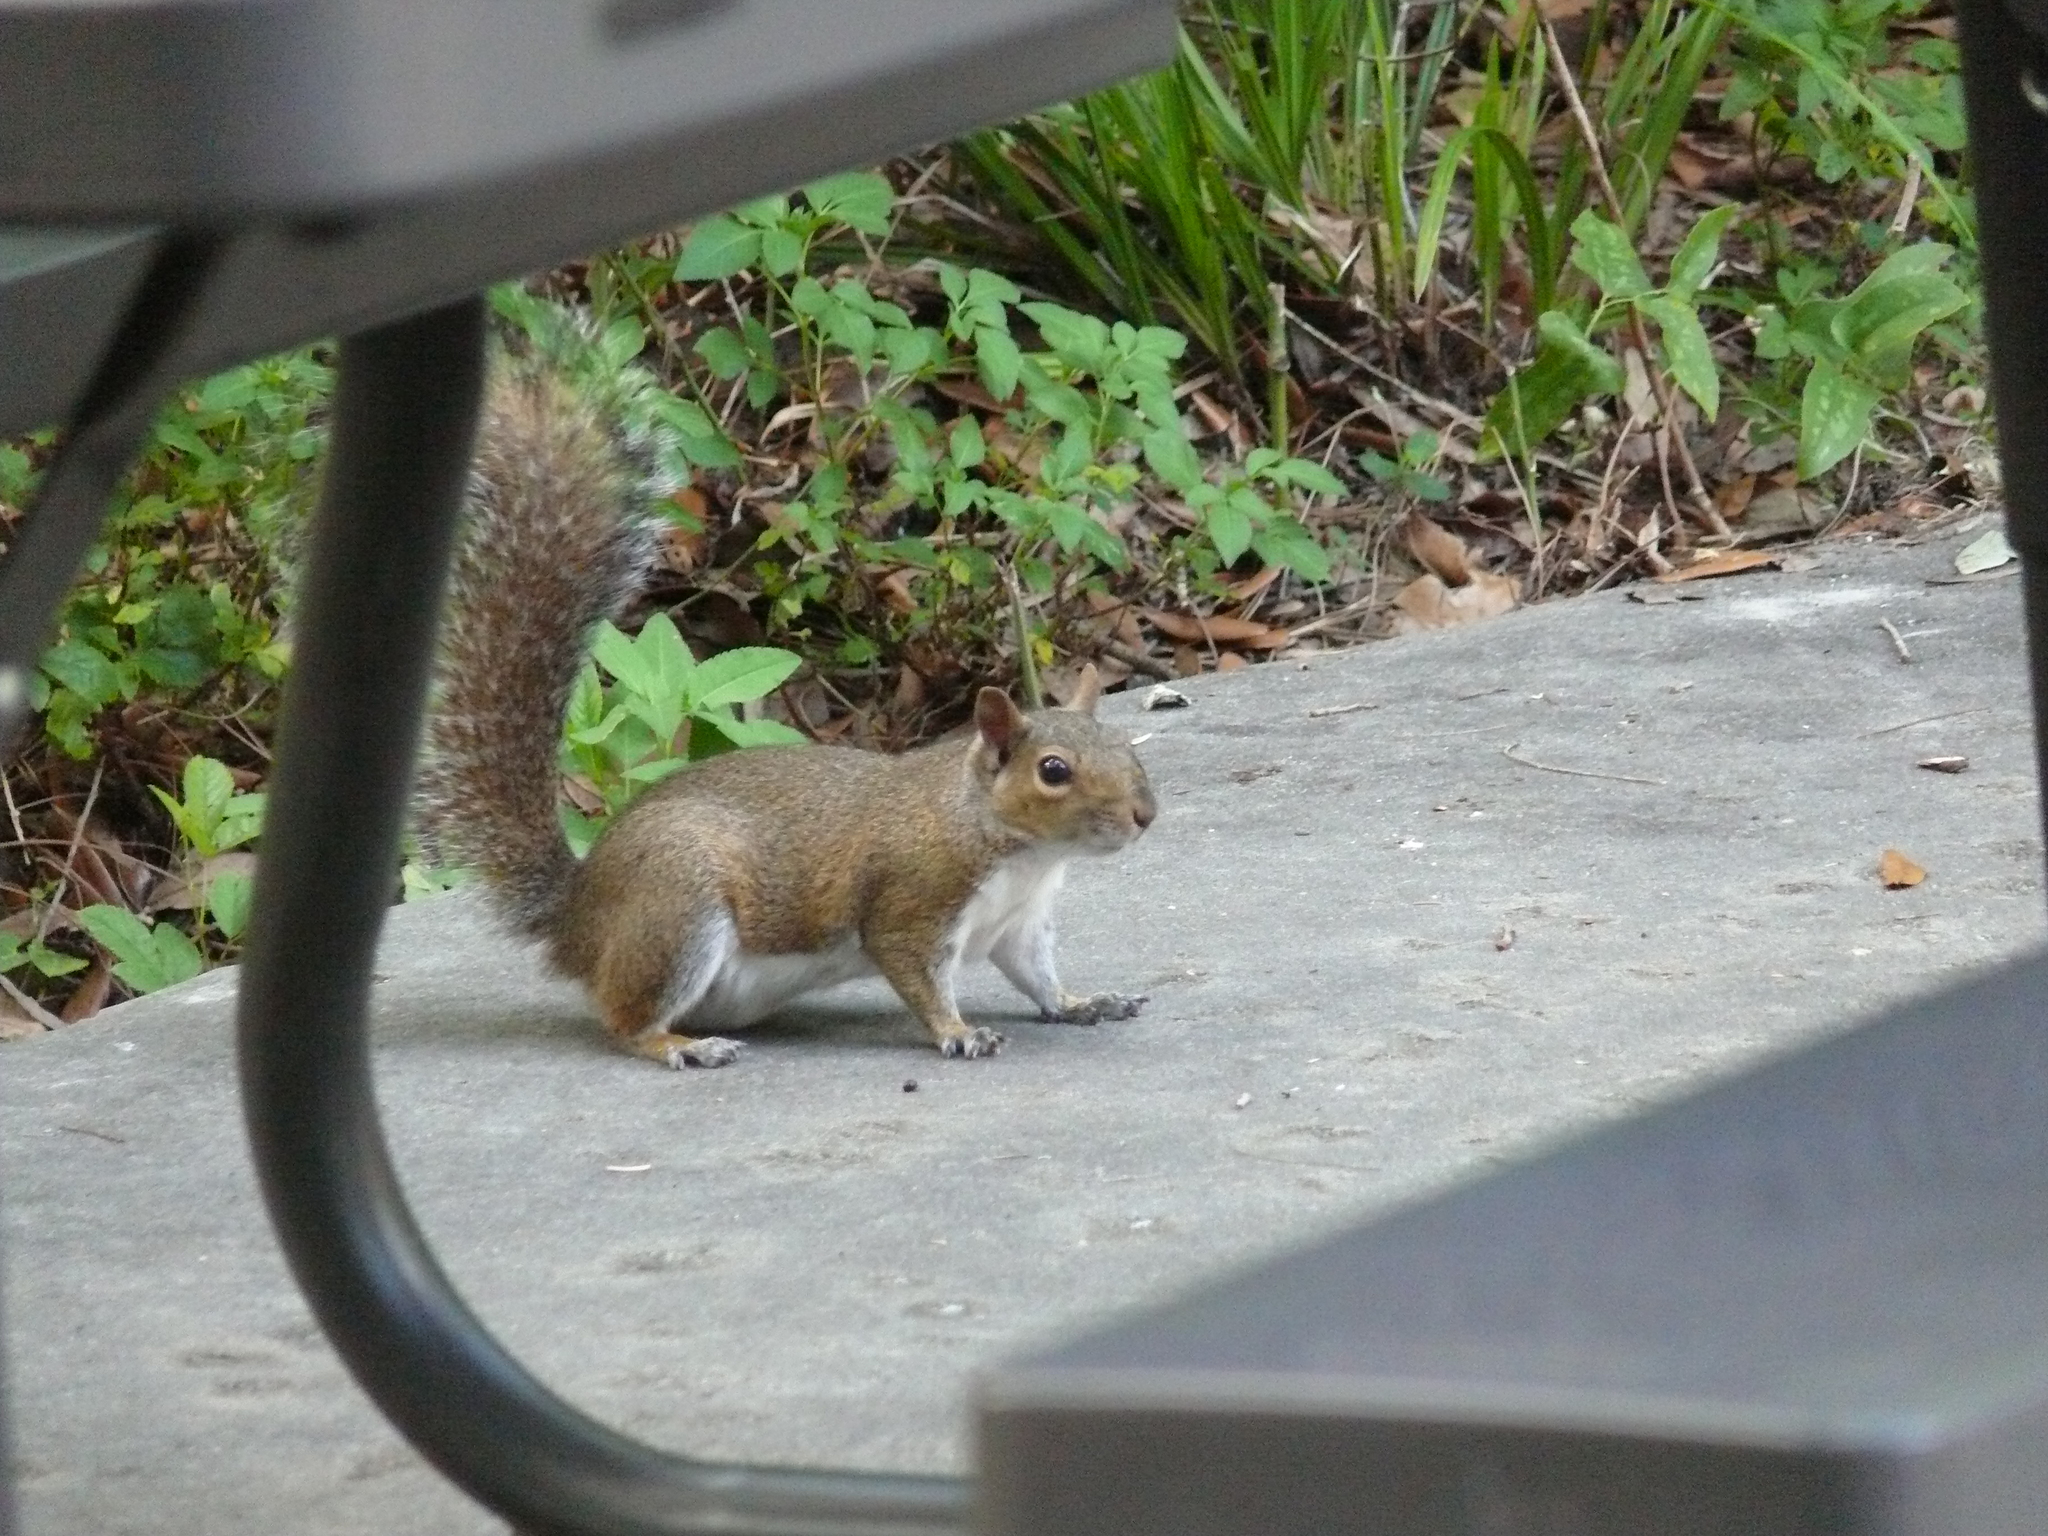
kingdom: Animalia
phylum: Chordata
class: Mammalia
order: Rodentia
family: Sciuridae
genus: Sciurus
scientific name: Sciurus carolinensis
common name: Eastern gray squirrel
